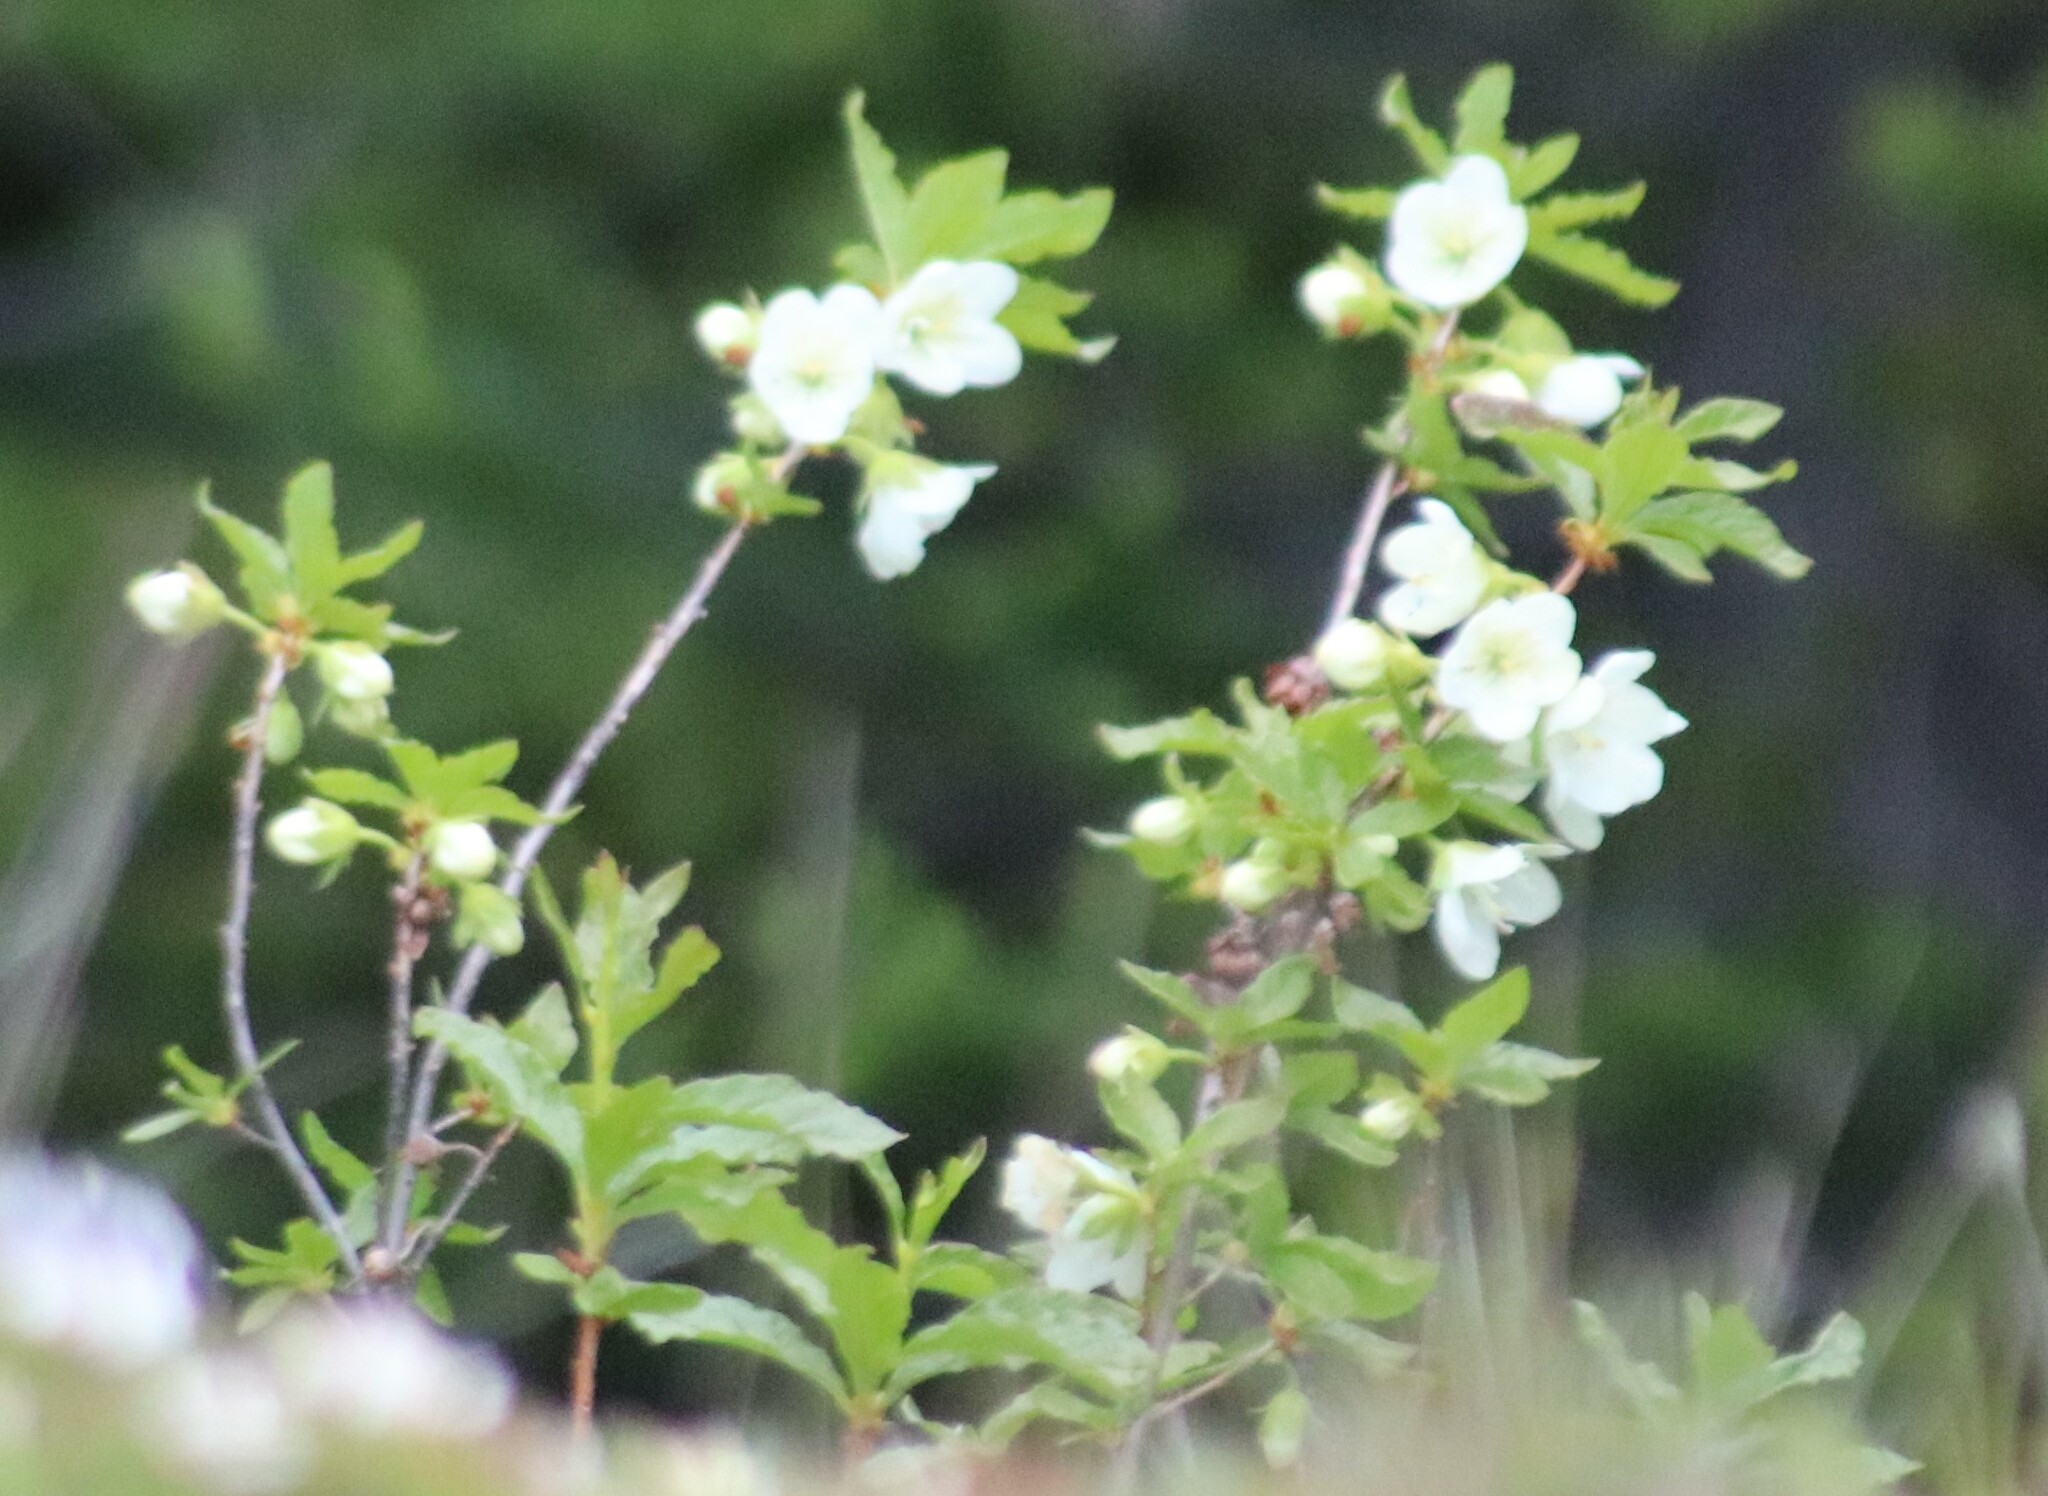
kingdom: Plantae
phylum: Tracheophyta
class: Magnoliopsida
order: Ericales
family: Ericaceae
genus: Rhododendron
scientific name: Rhododendron albiflorum
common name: White rhododendron
